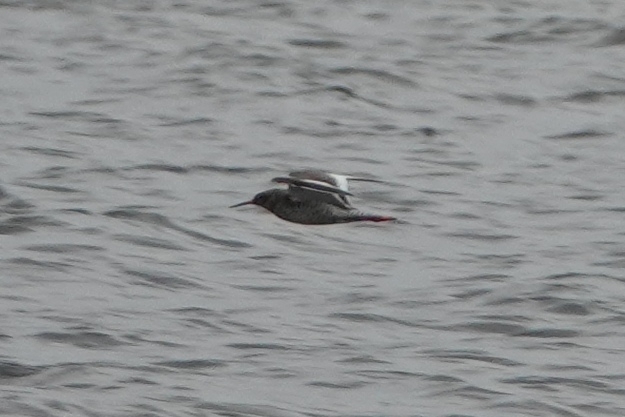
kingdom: Animalia
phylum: Chordata
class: Aves
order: Charadriiformes
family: Scolopacidae
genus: Tringa
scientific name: Tringa totanus
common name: Common redshank
